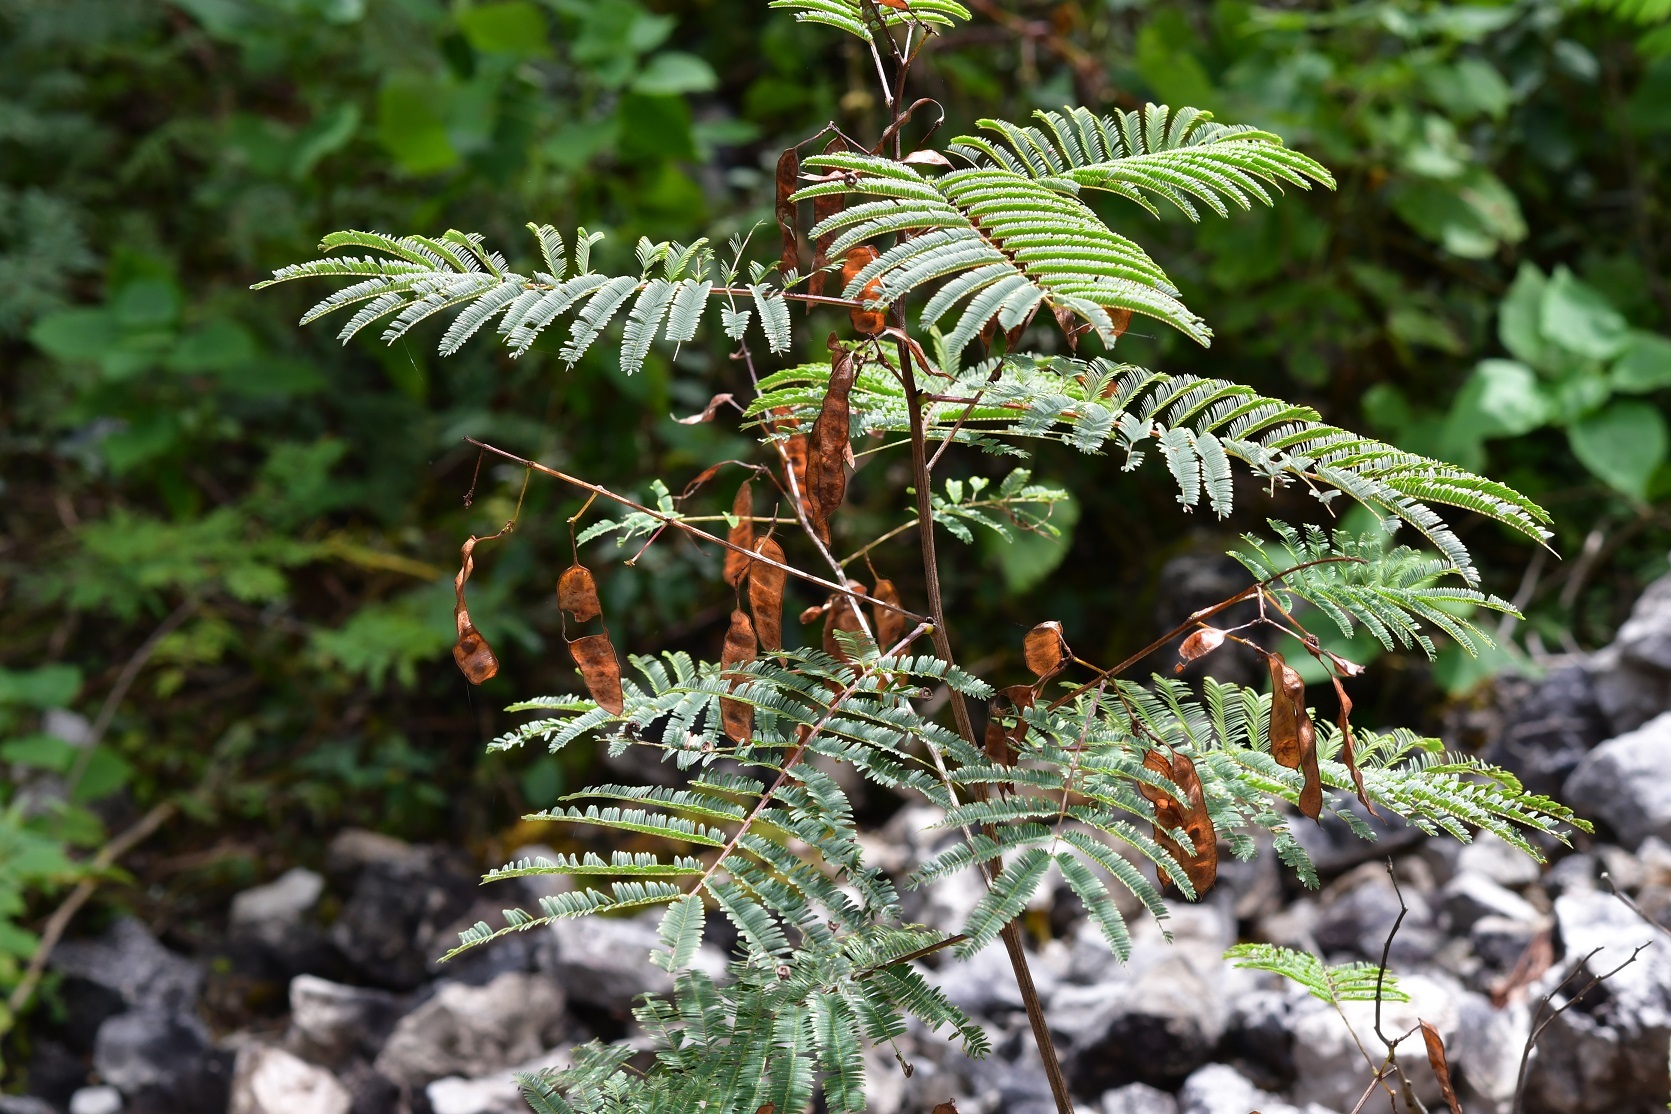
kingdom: Plantae
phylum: Tracheophyta
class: Magnoliopsida
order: Fabales
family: Fabaceae
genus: Acaciella
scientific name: Acaciella angustissima
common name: Prairie acacia
